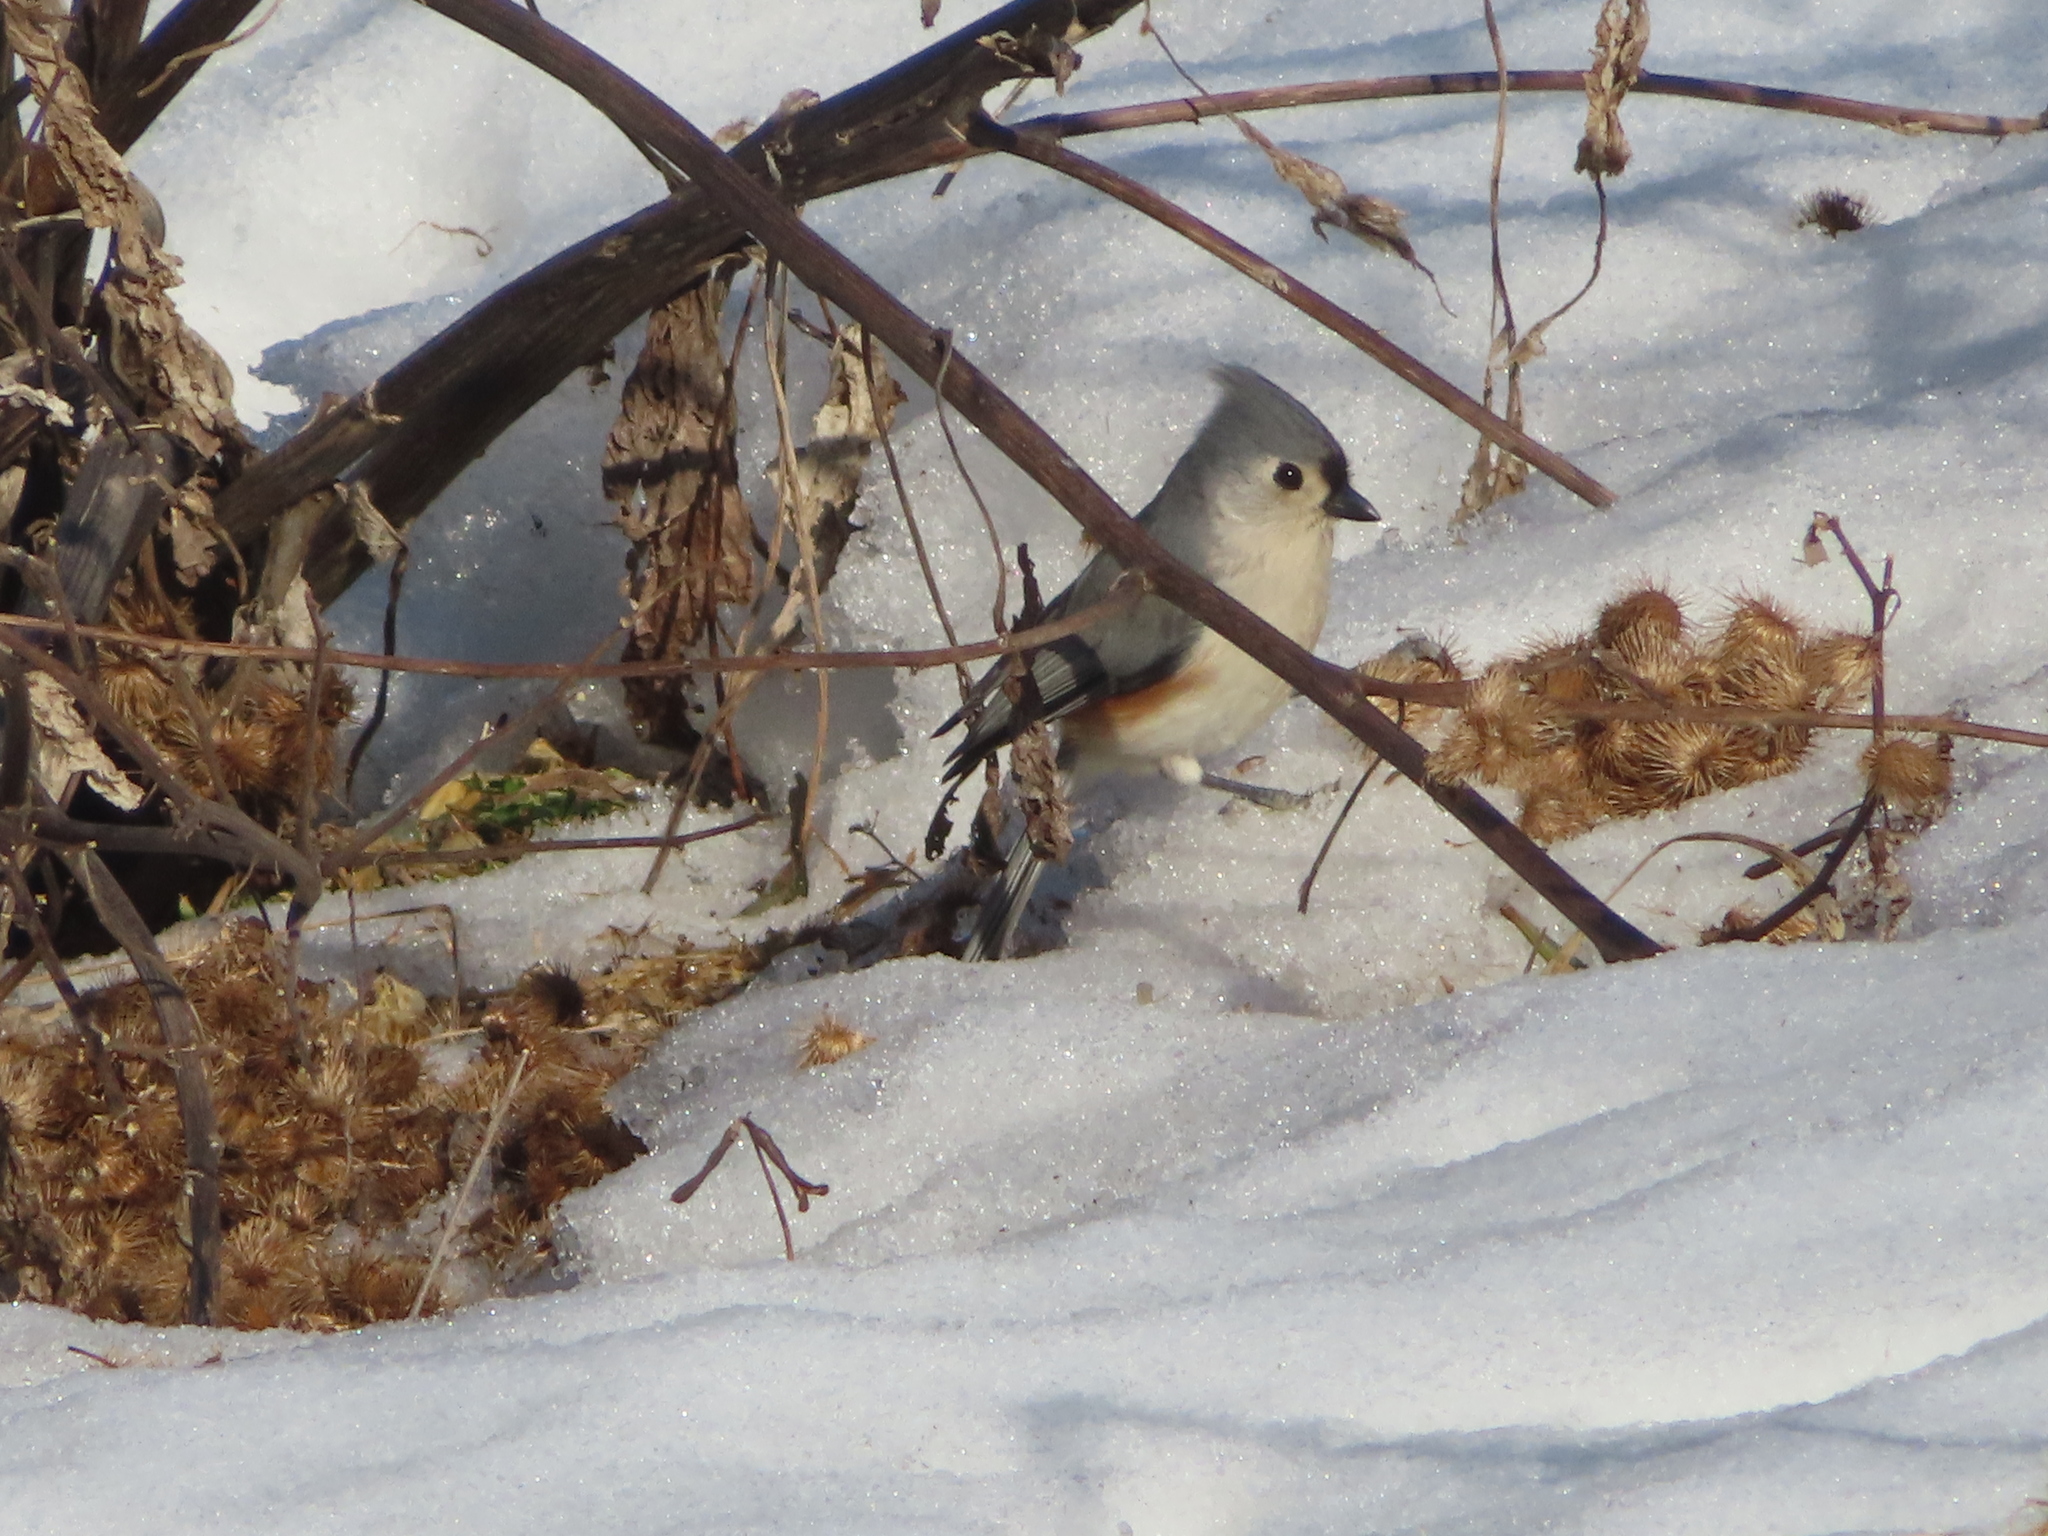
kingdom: Animalia
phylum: Chordata
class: Aves
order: Passeriformes
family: Paridae
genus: Baeolophus
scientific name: Baeolophus bicolor
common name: Tufted titmouse
